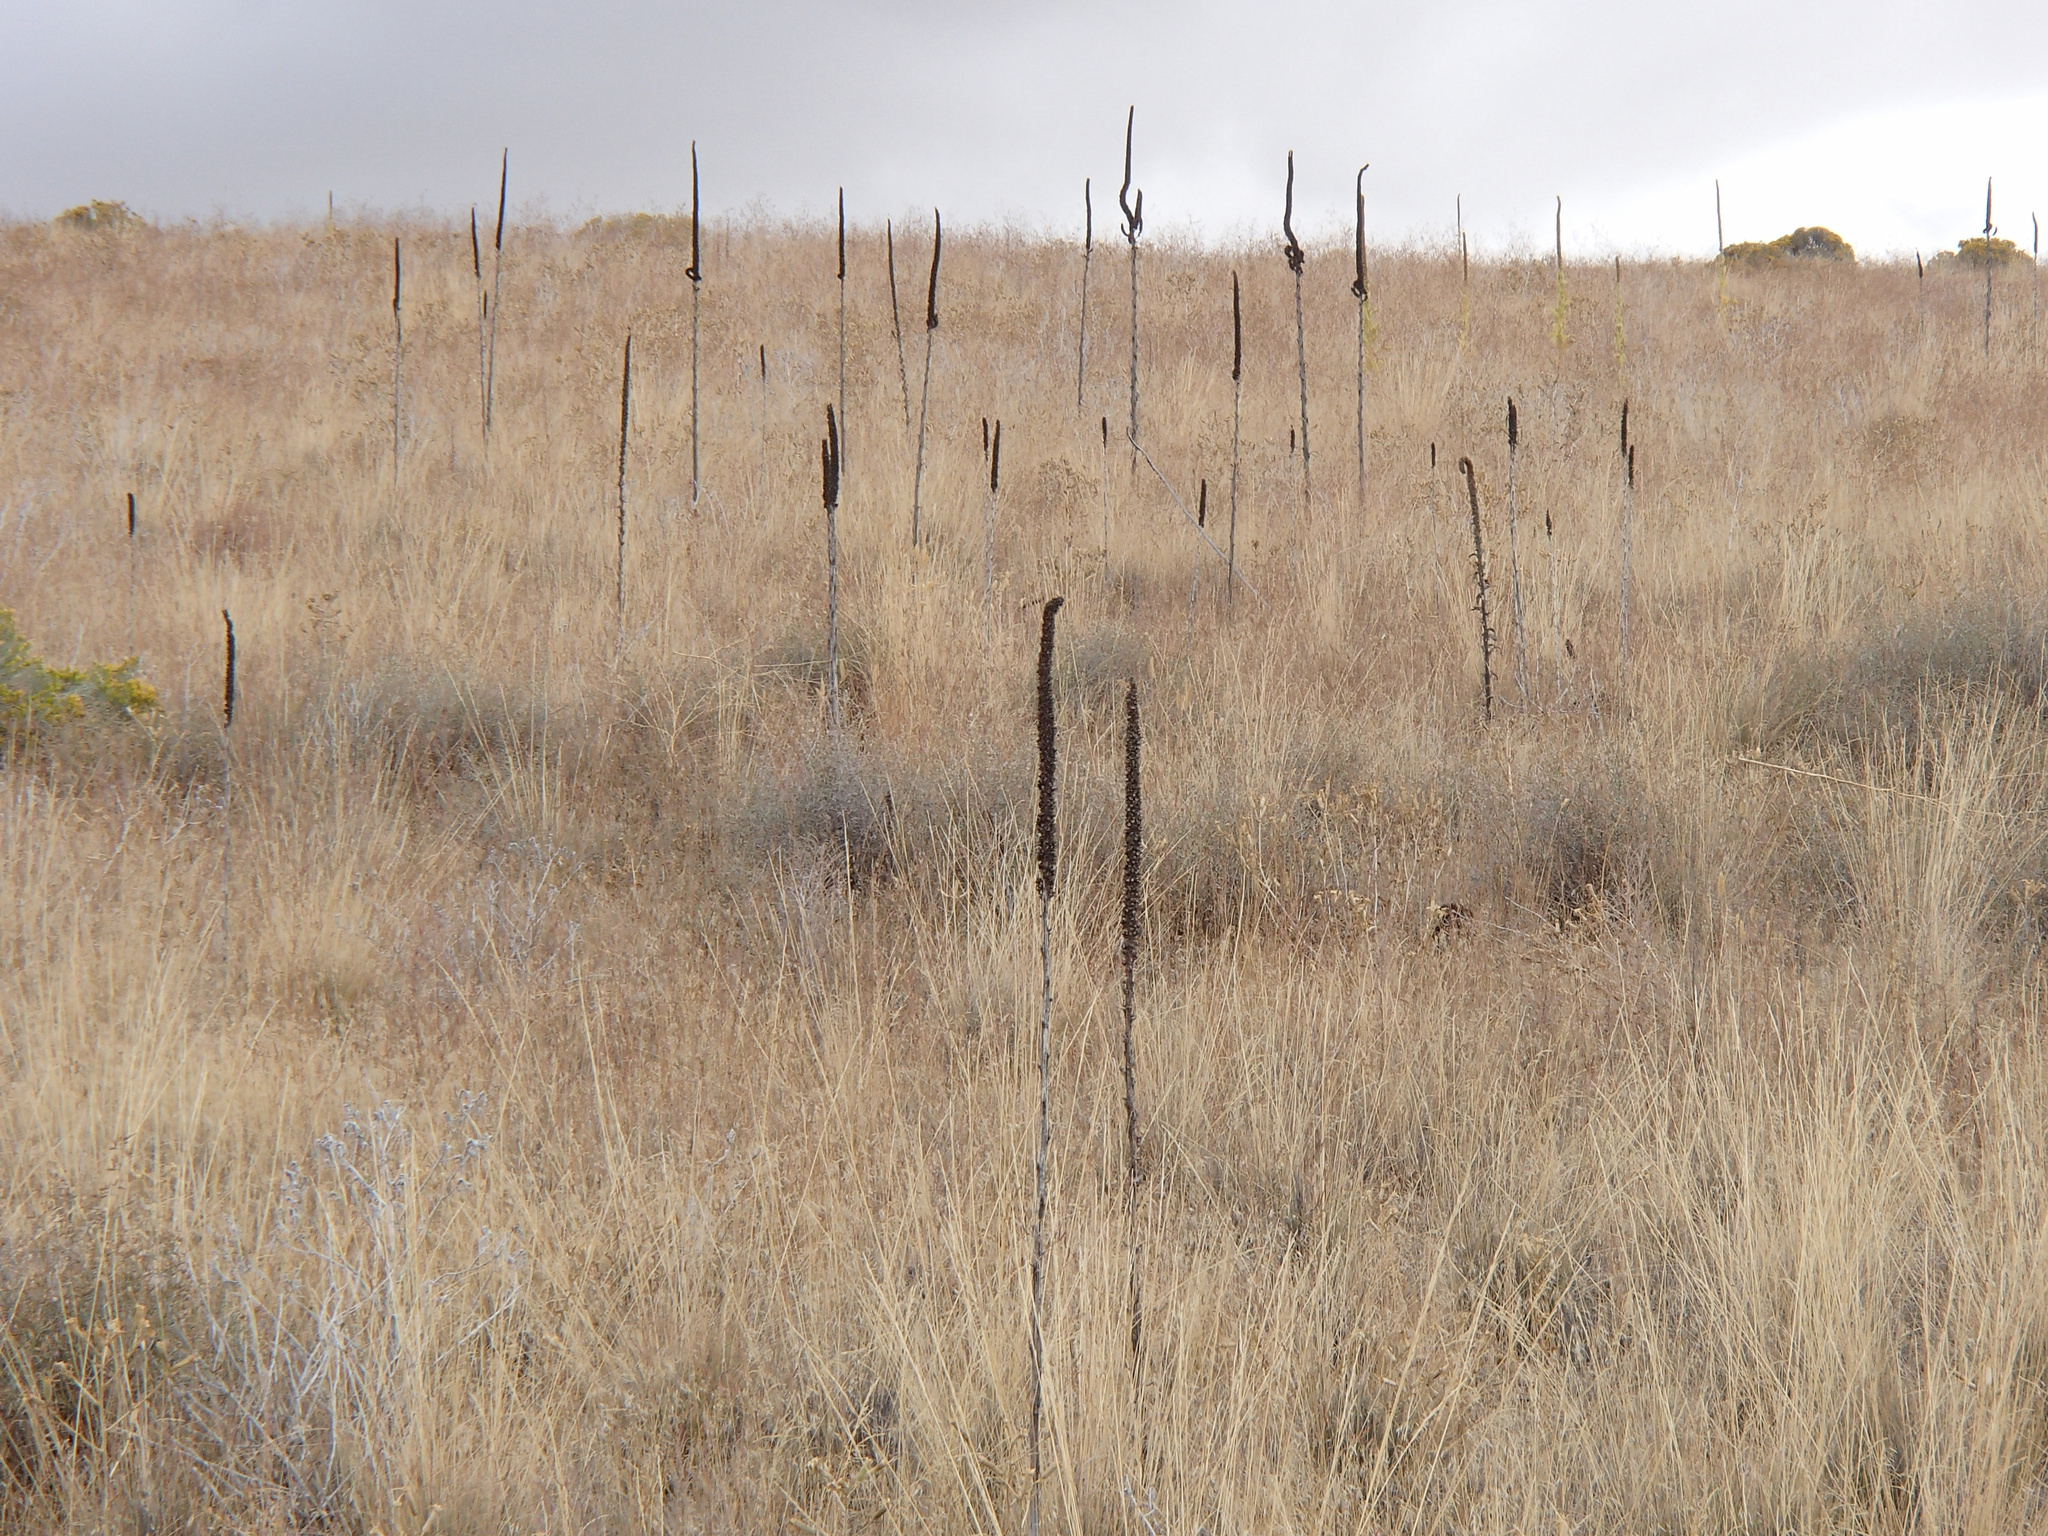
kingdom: Plantae
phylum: Tracheophyta
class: Magnoliopsida
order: Lamiales
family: Scrophulariaceae
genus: Verbascum
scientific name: Verbascum thapsus
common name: Common mullein
